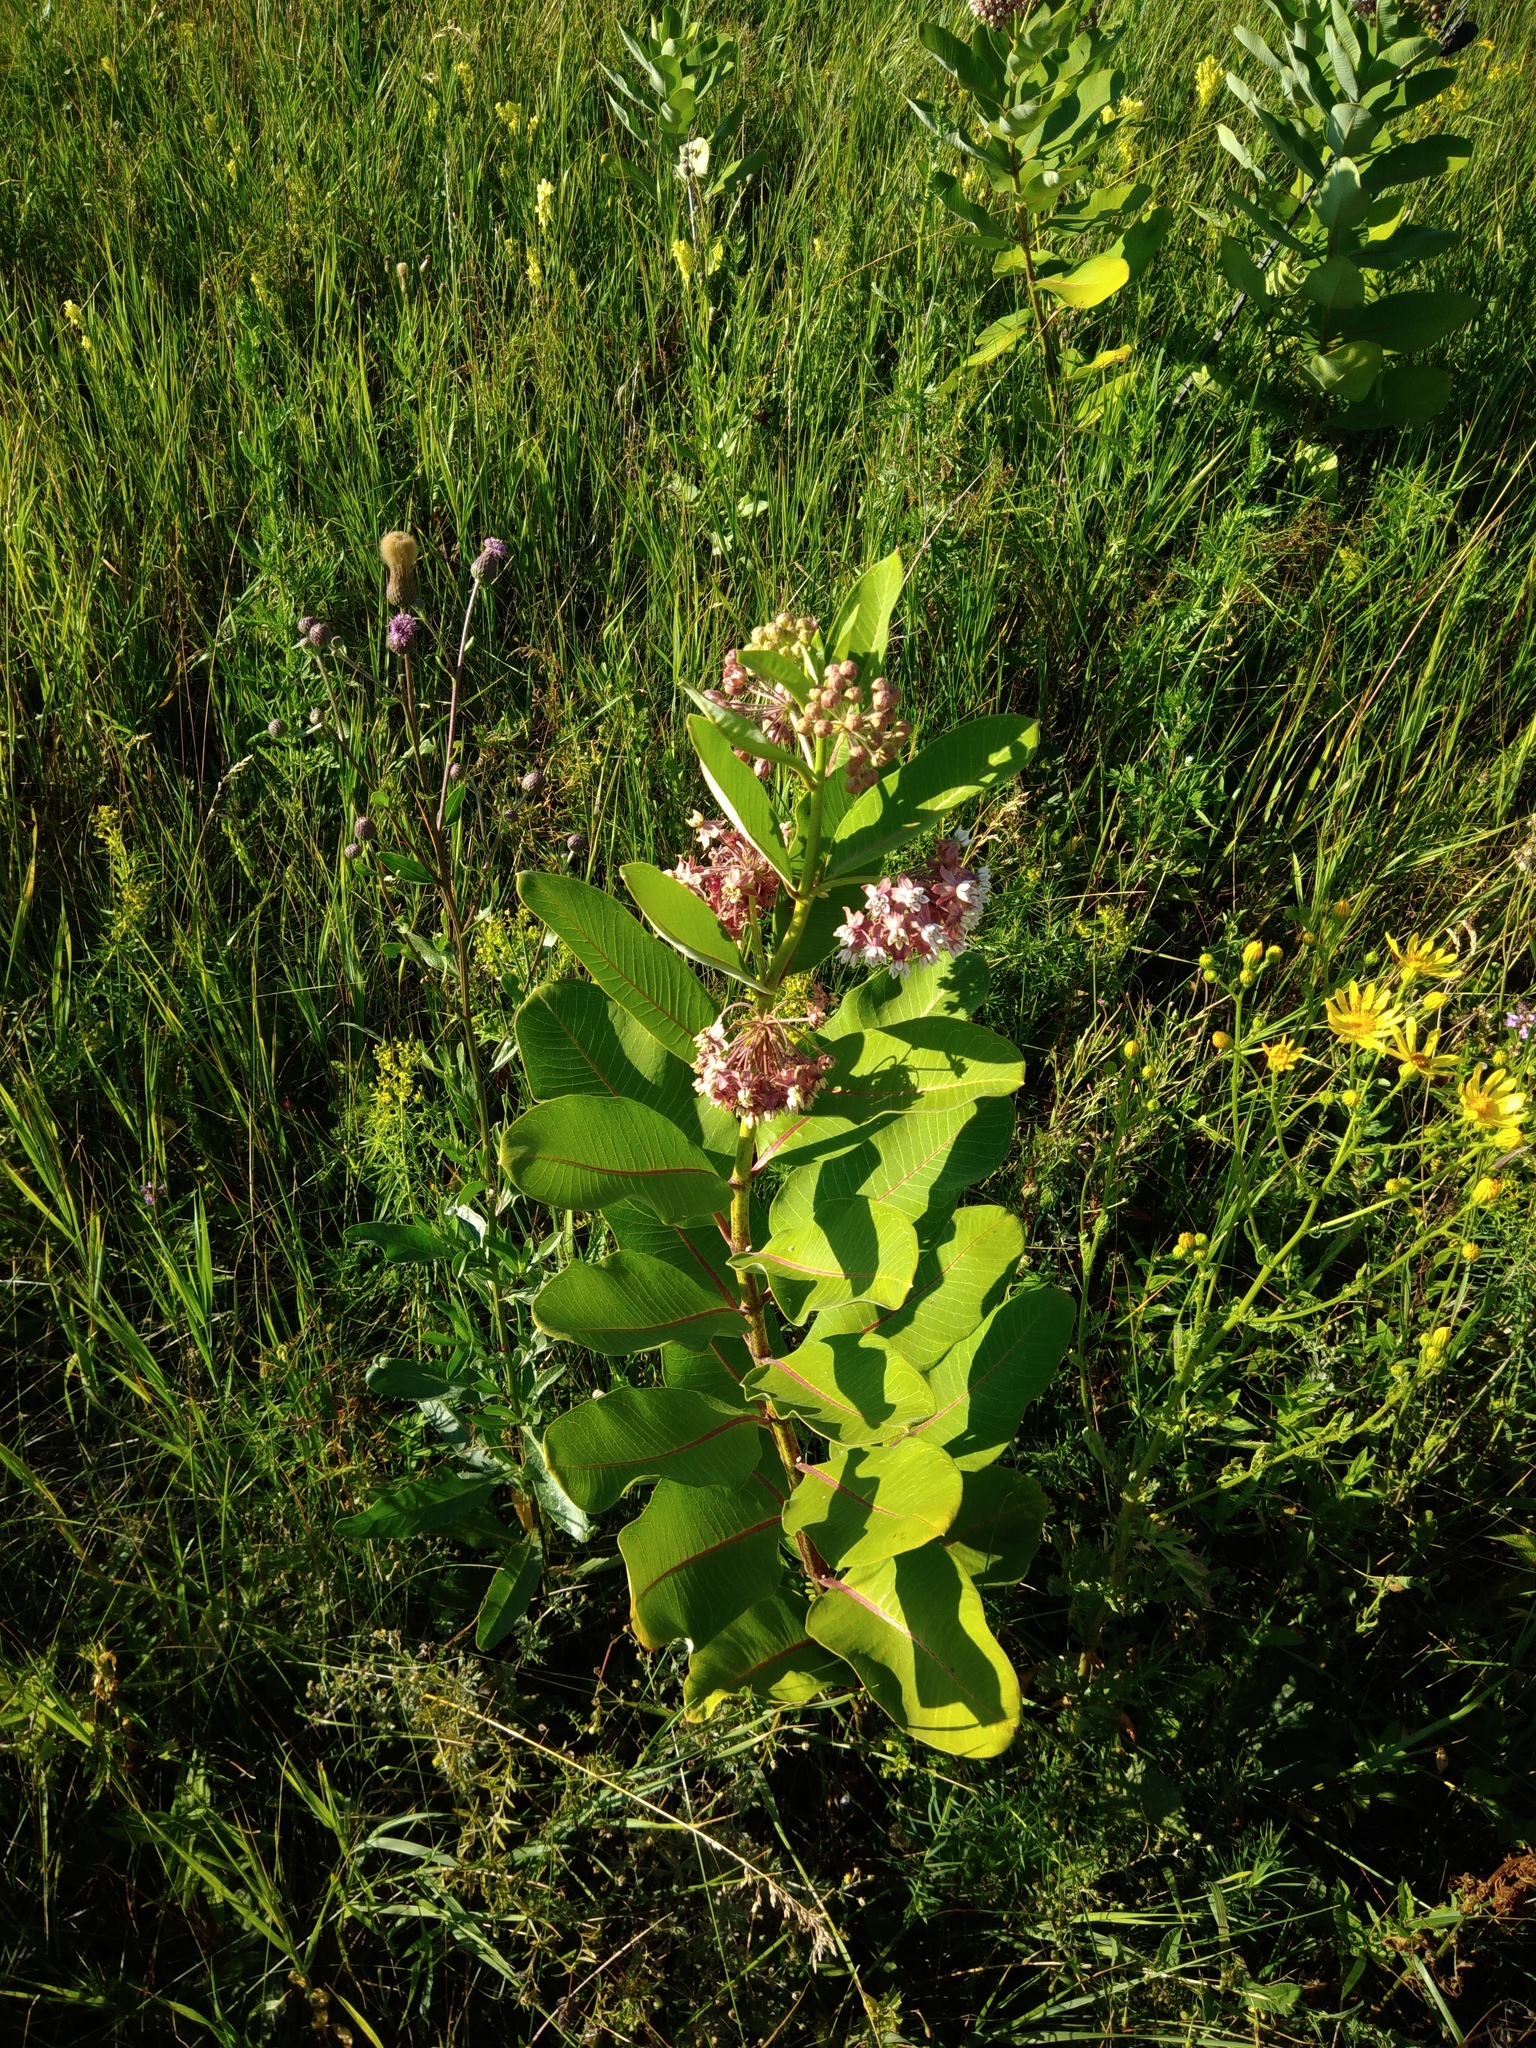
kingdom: Plantae
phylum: Tracheophyta
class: Magnoliopsida
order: Gentianales
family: Apocynaceae
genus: Asclepias
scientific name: Asclepias syriaca
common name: Common milkweed
